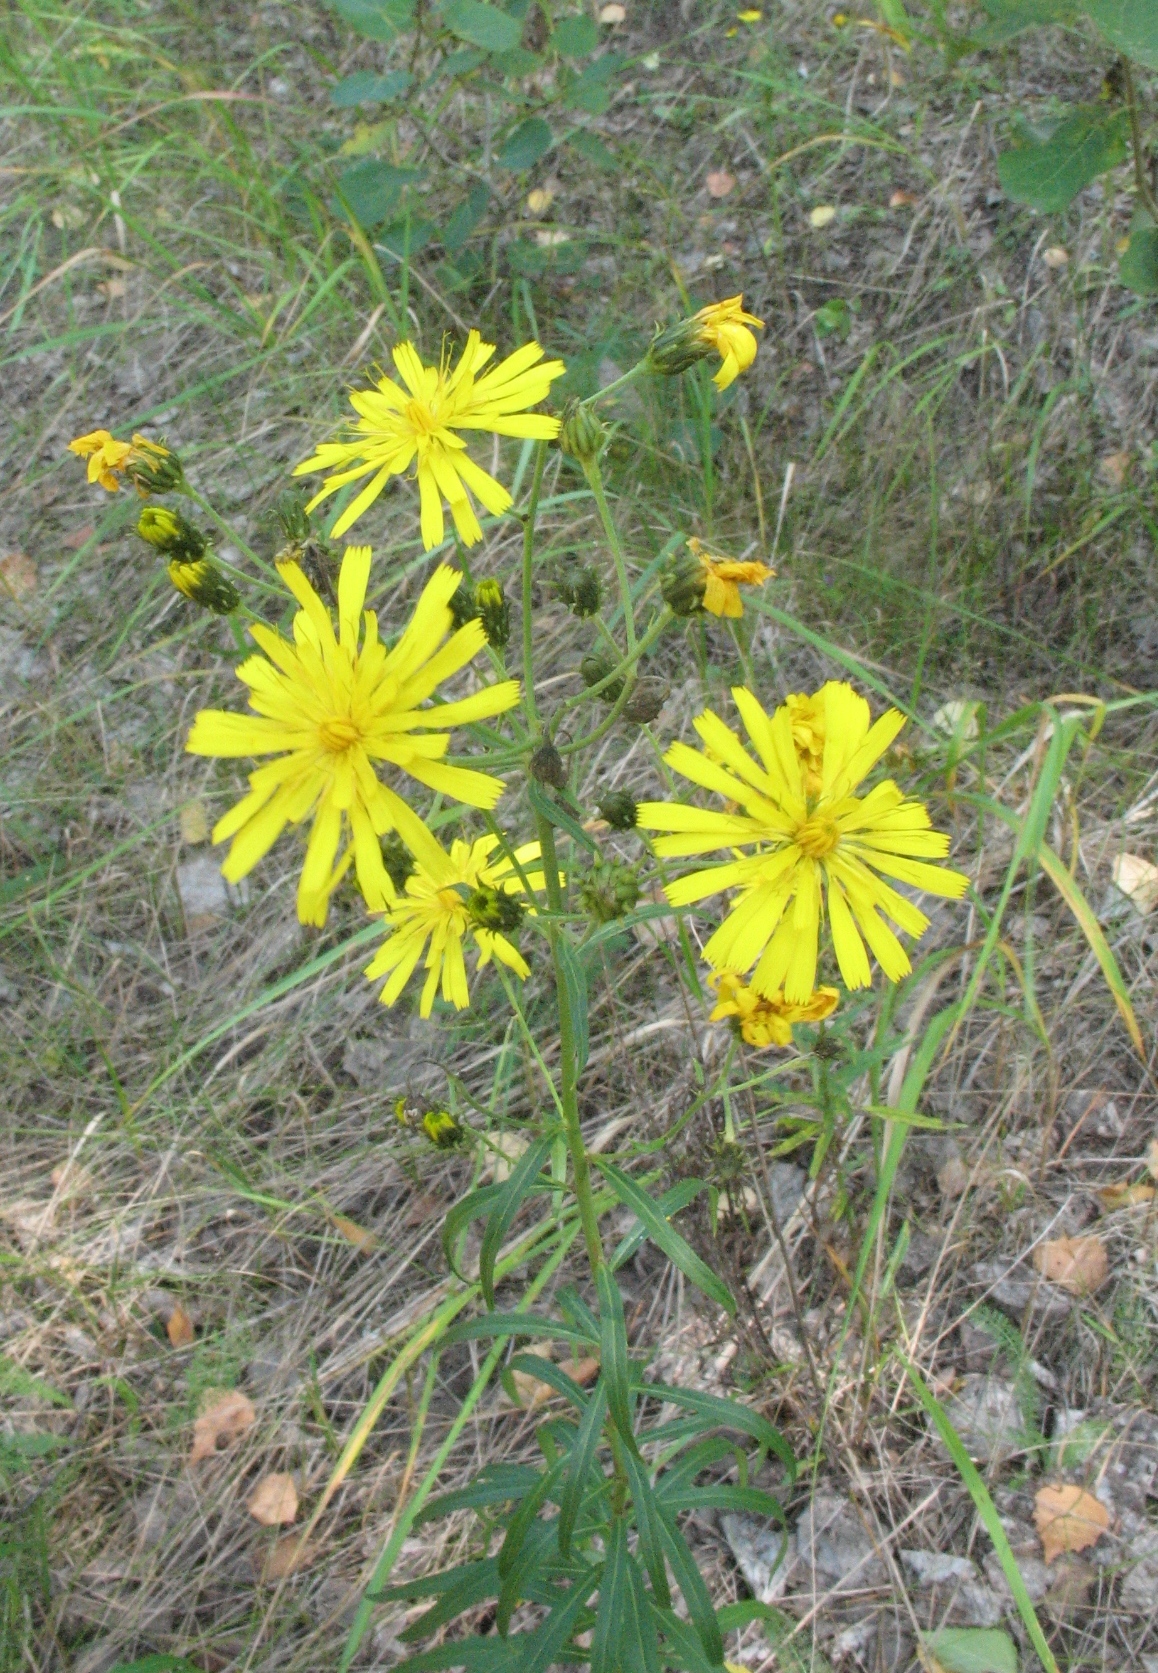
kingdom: Plantae
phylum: Tracheophyta
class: Magnoliopsida
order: Asterales
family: Asteraceae
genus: Hieracium
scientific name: Hieracium umbellatum
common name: Northern hawkweed
